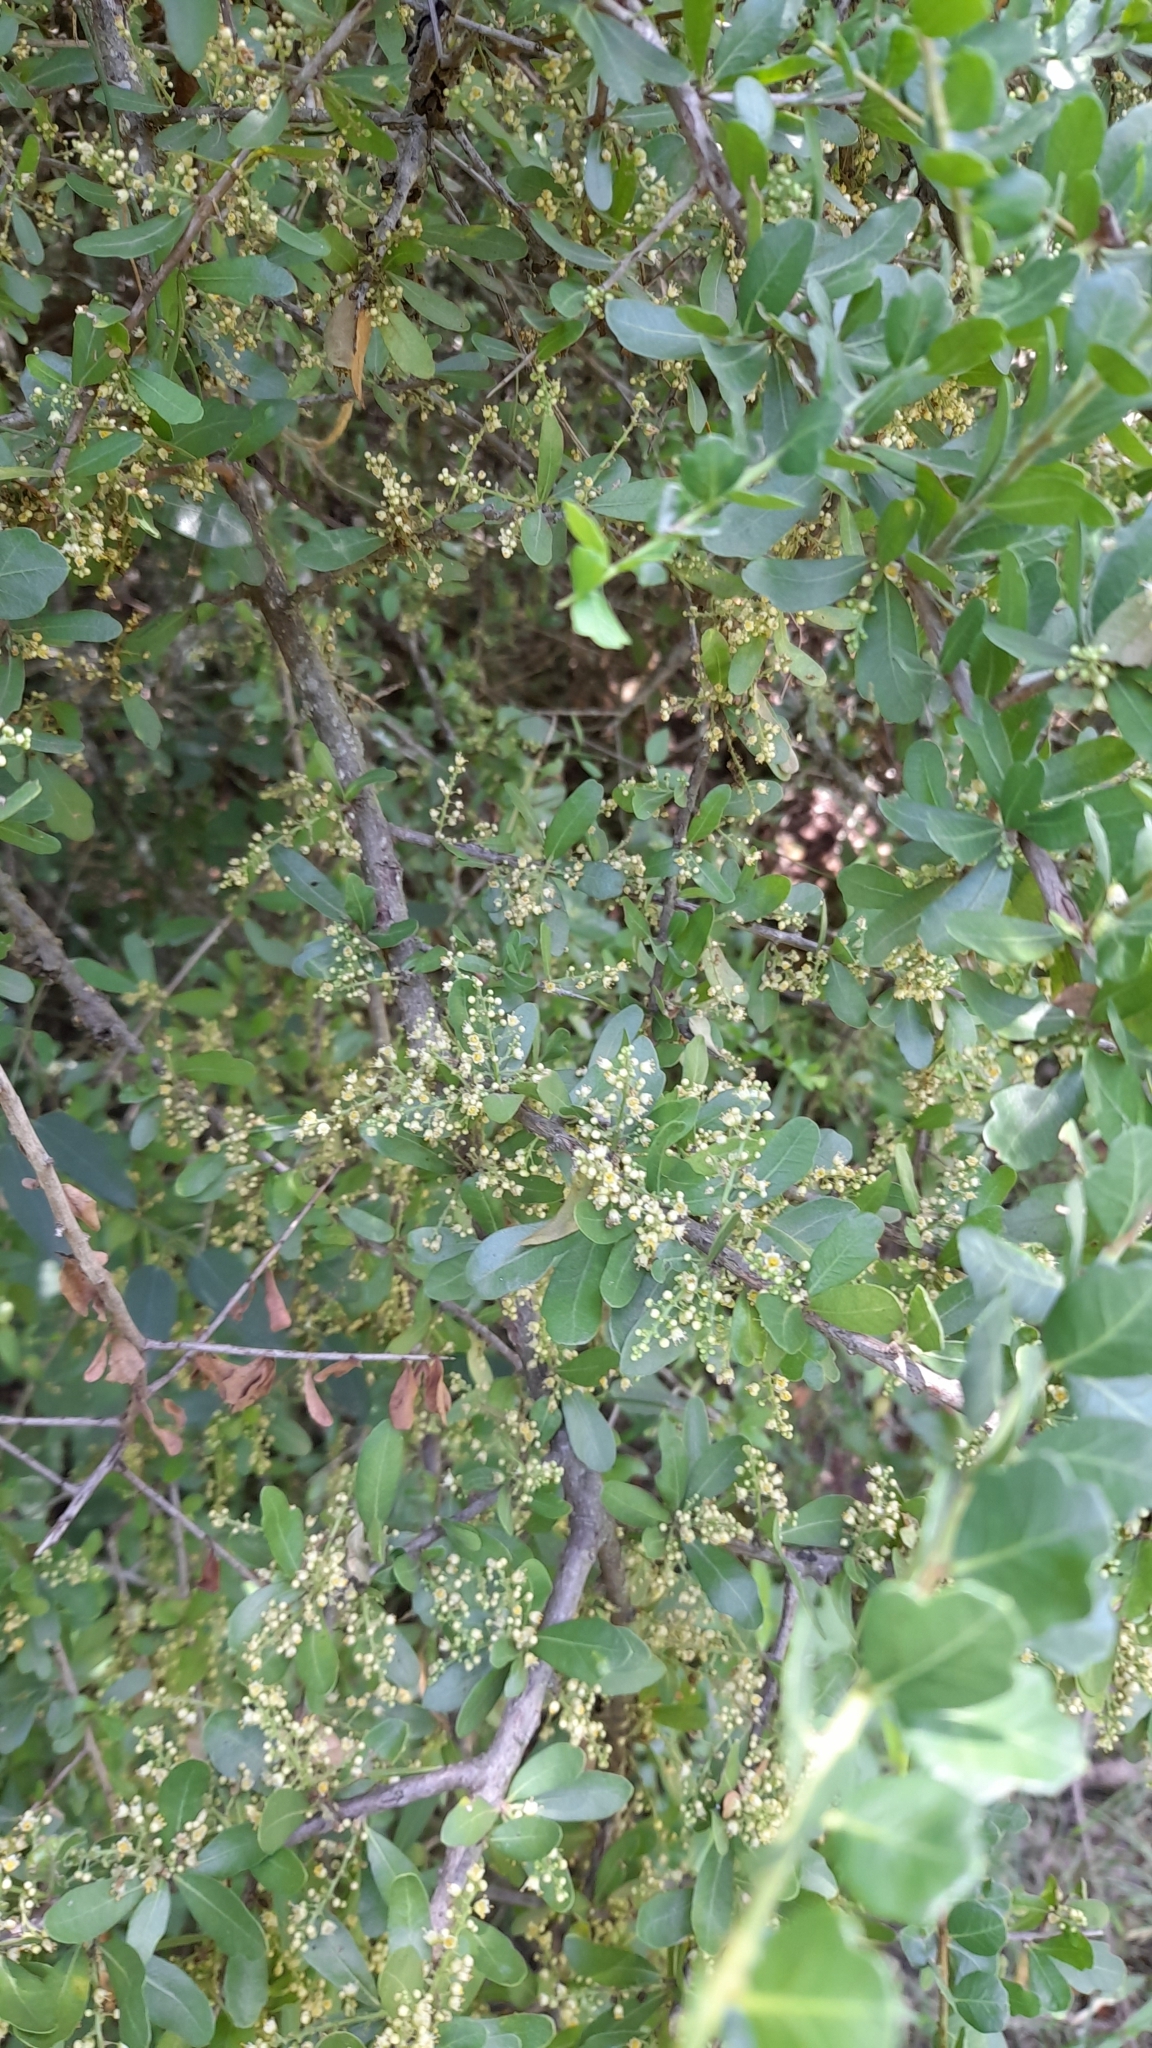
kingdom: Plantae
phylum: Tracheophyta
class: Magnoliopsida
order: Sapindales
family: Anacardiaceae
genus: Schinus
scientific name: Schinus fasciculata
